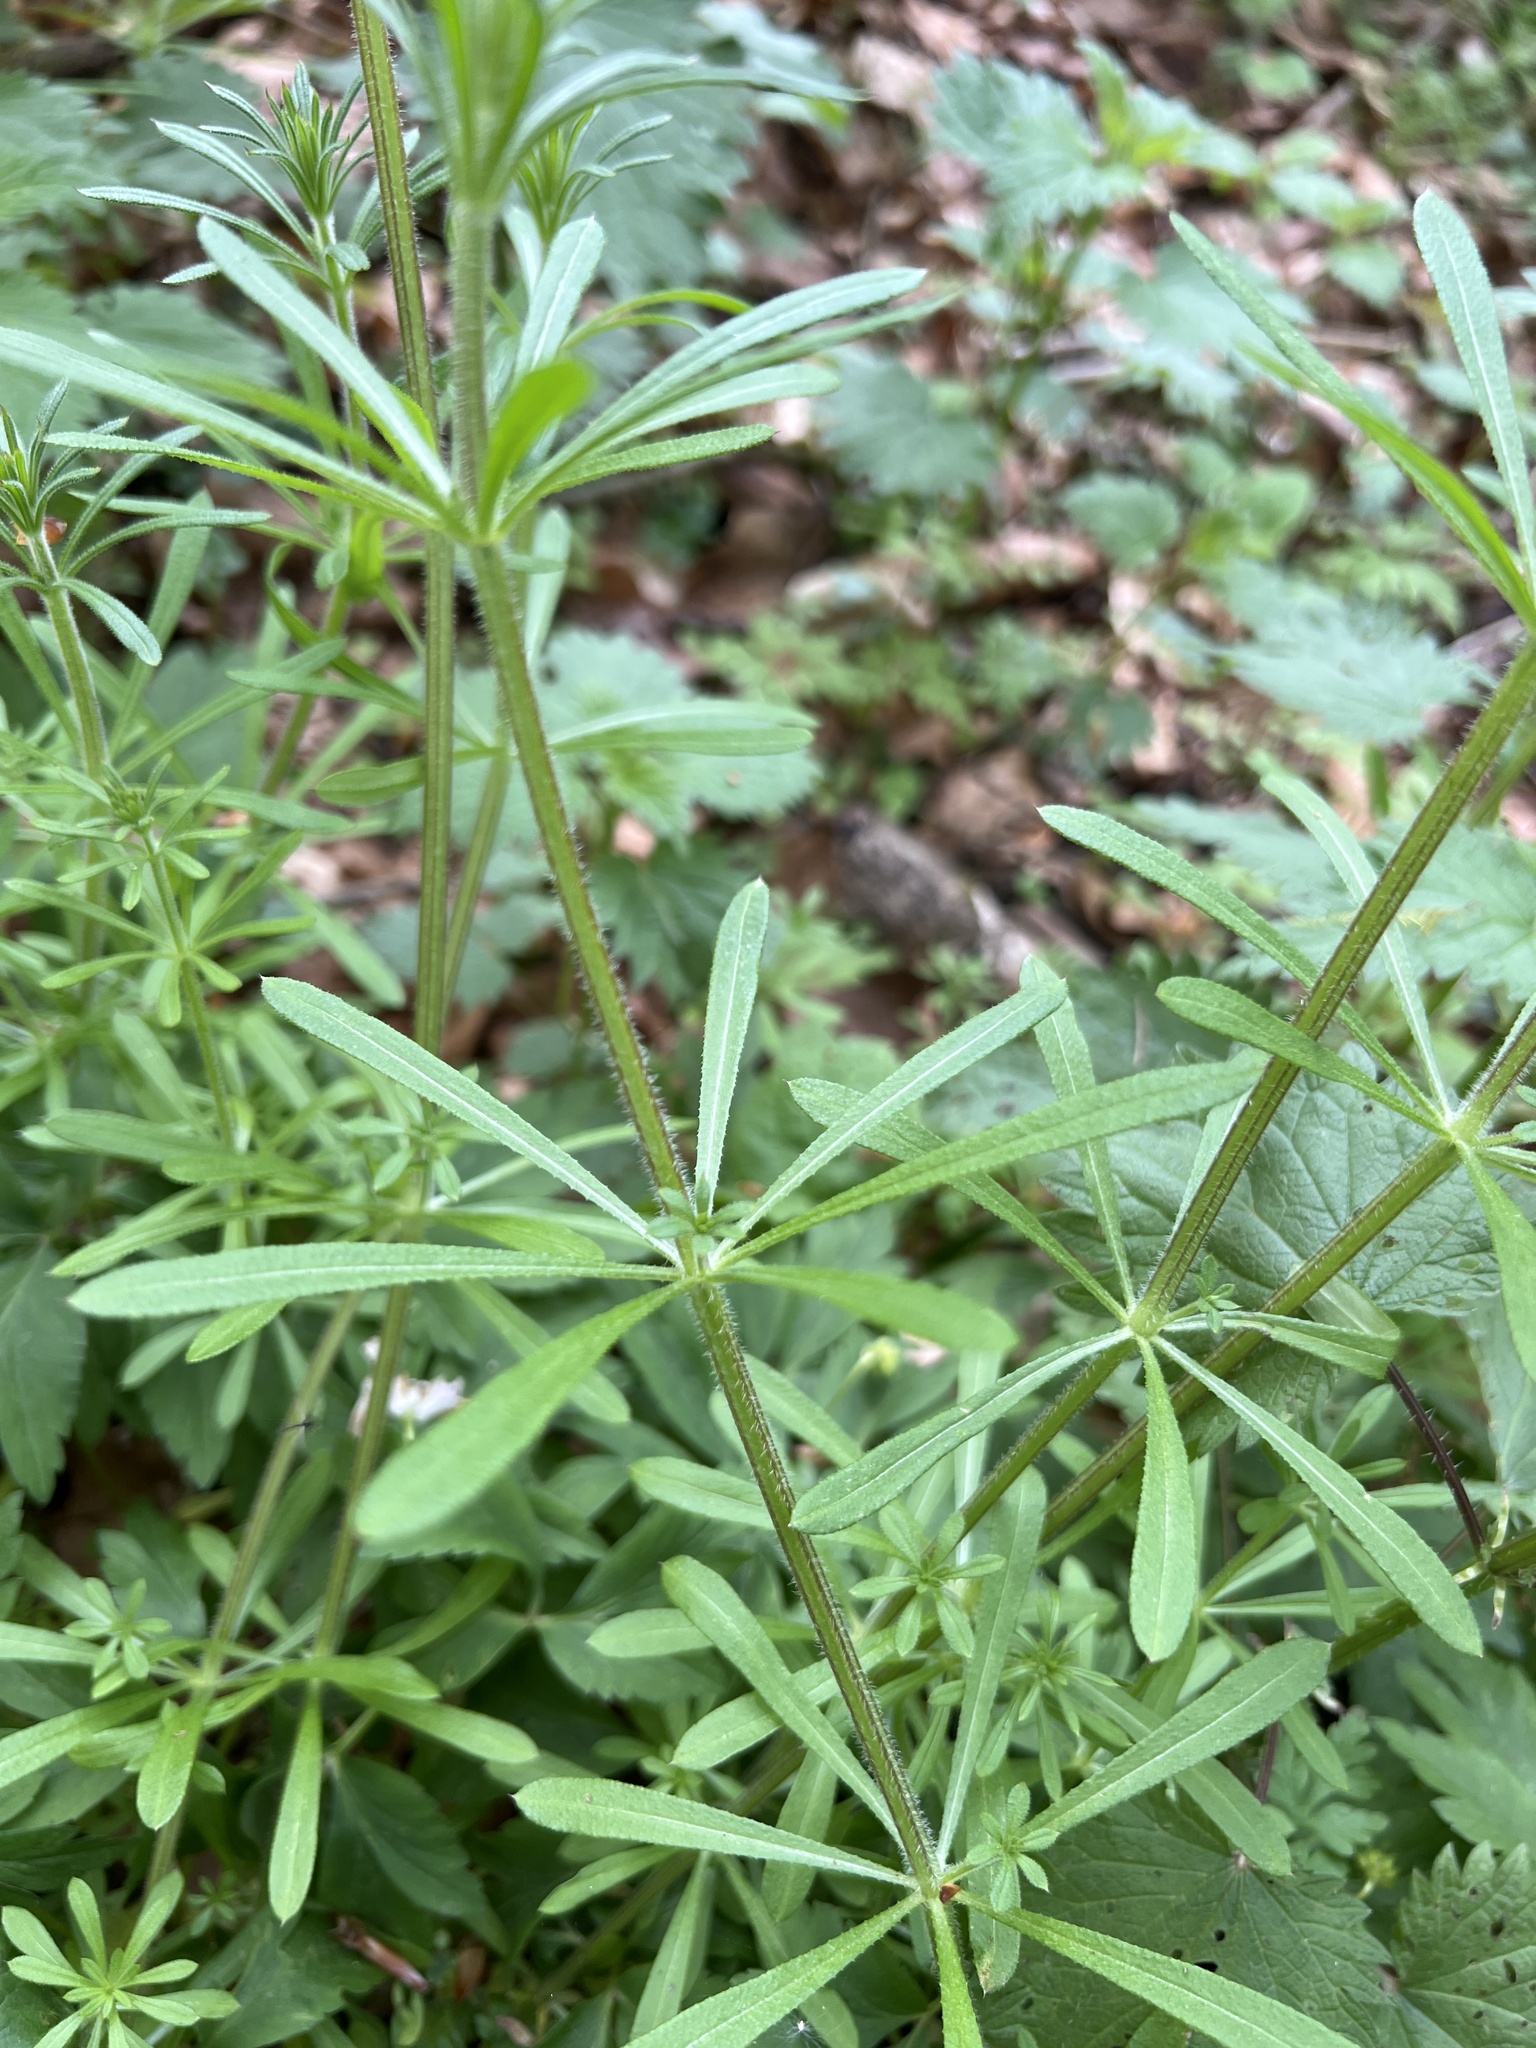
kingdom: Plantae
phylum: Tracheophyta
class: Magnoliopsida
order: Gentianales
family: Rubiaceae
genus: Galium
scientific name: Galium aparine
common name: Cleavers
